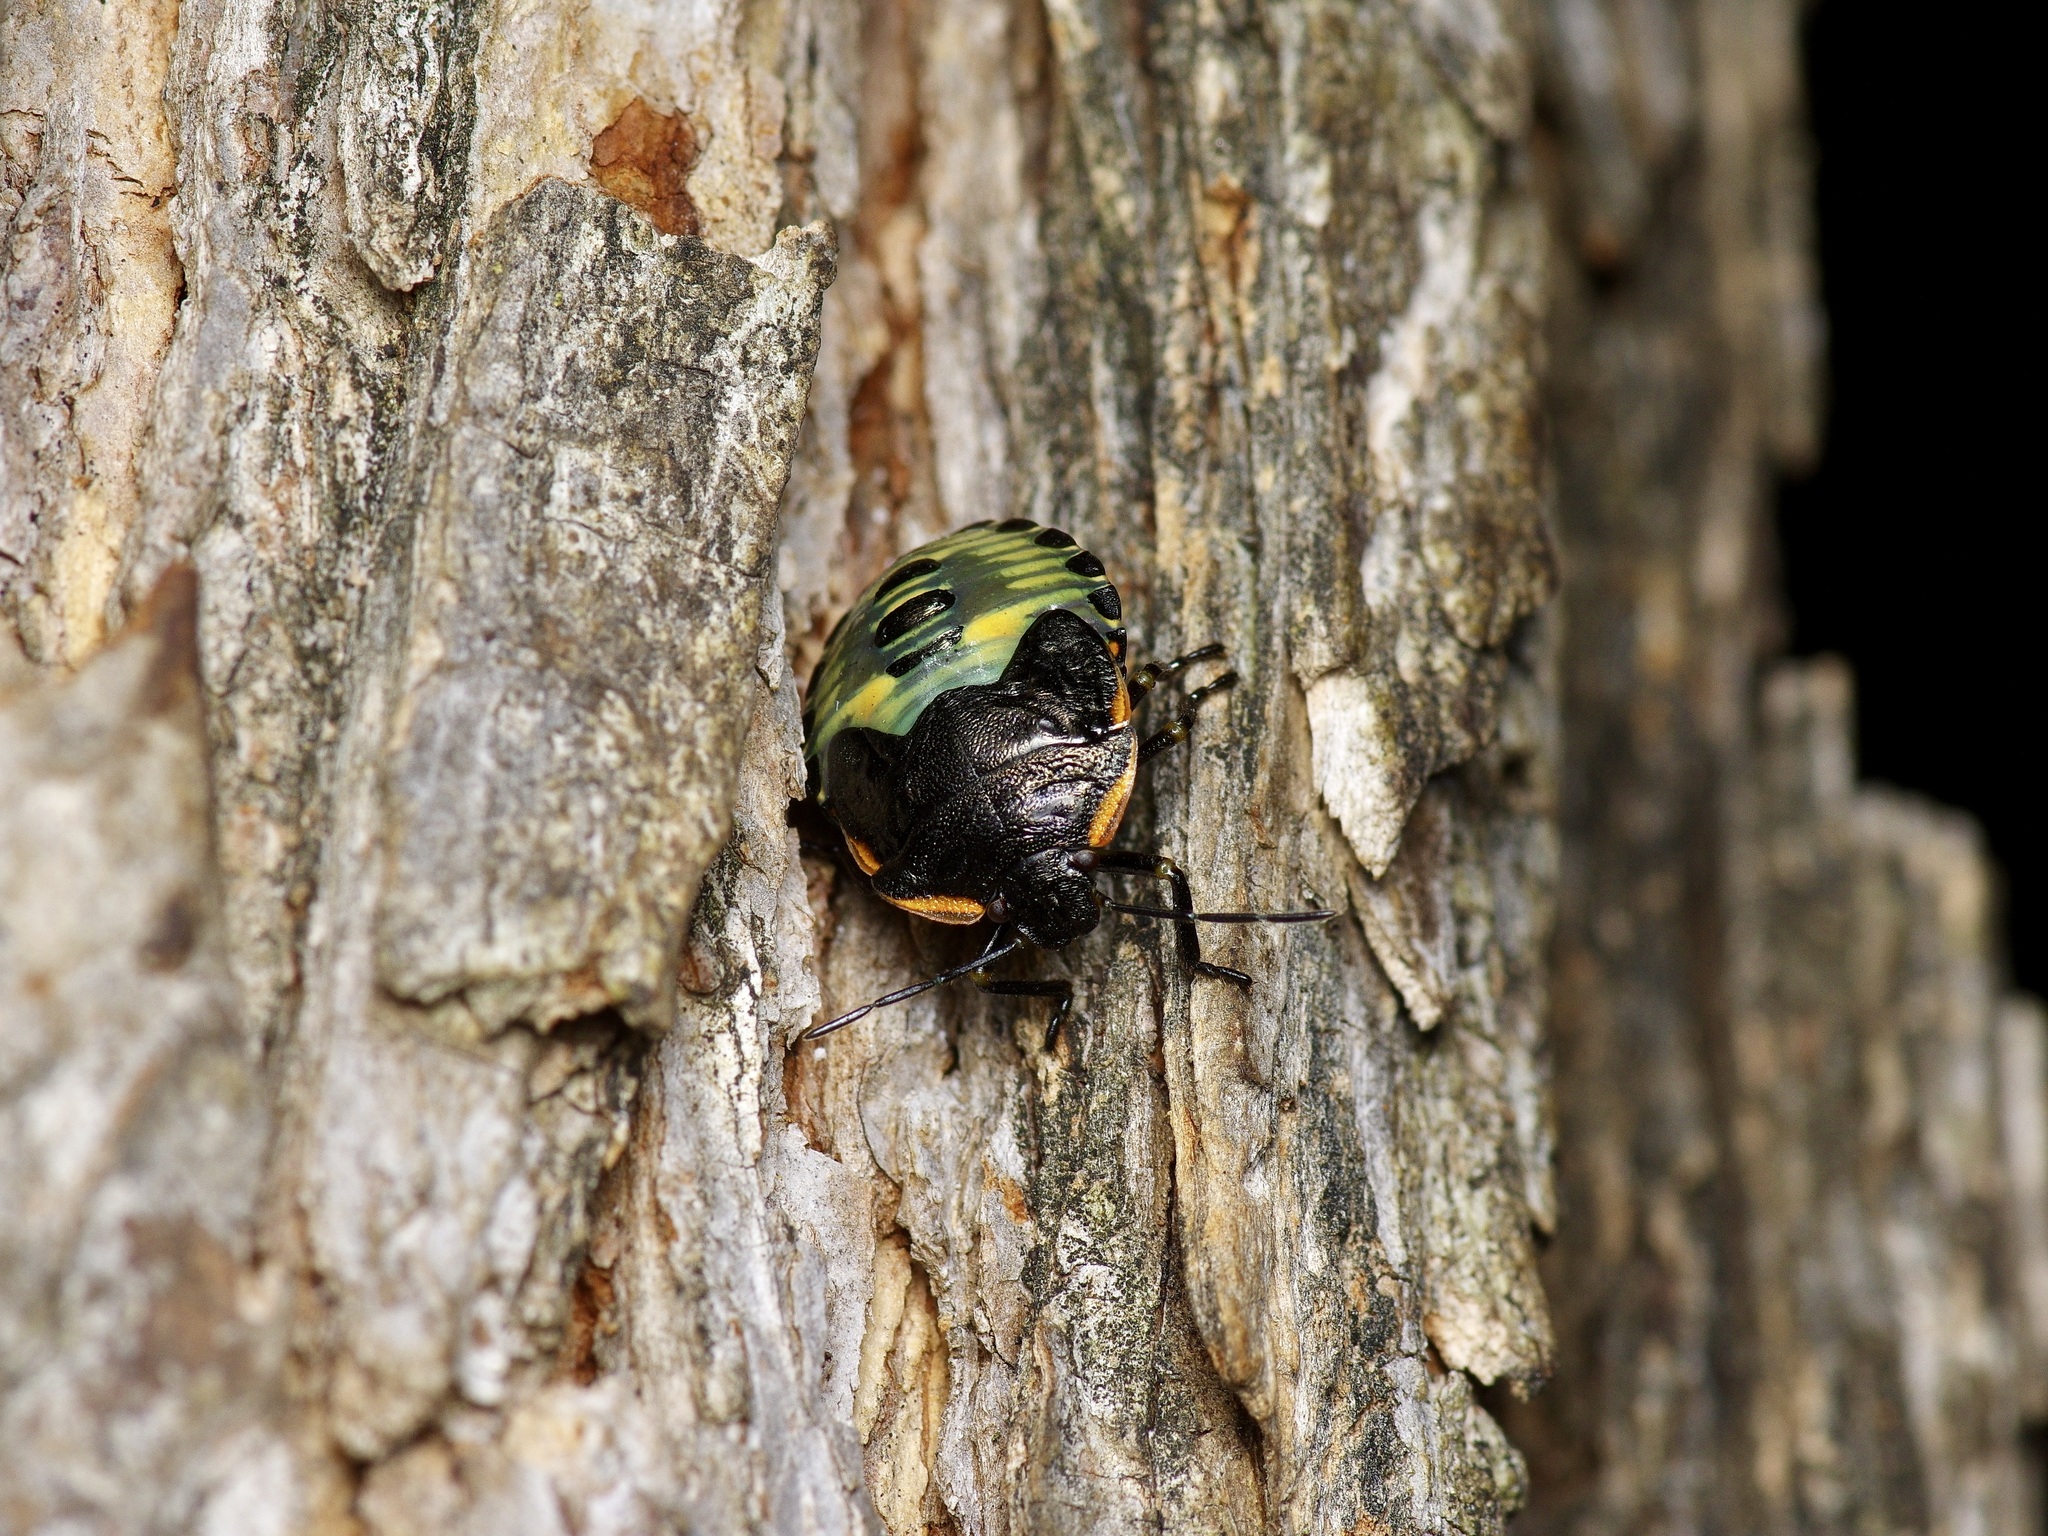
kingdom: Animalia
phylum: Arthropoda
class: Insecta
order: Hemiptera
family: Pentatomidae
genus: Chinavia
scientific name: Chinavia hilaris
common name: Green stink bug
